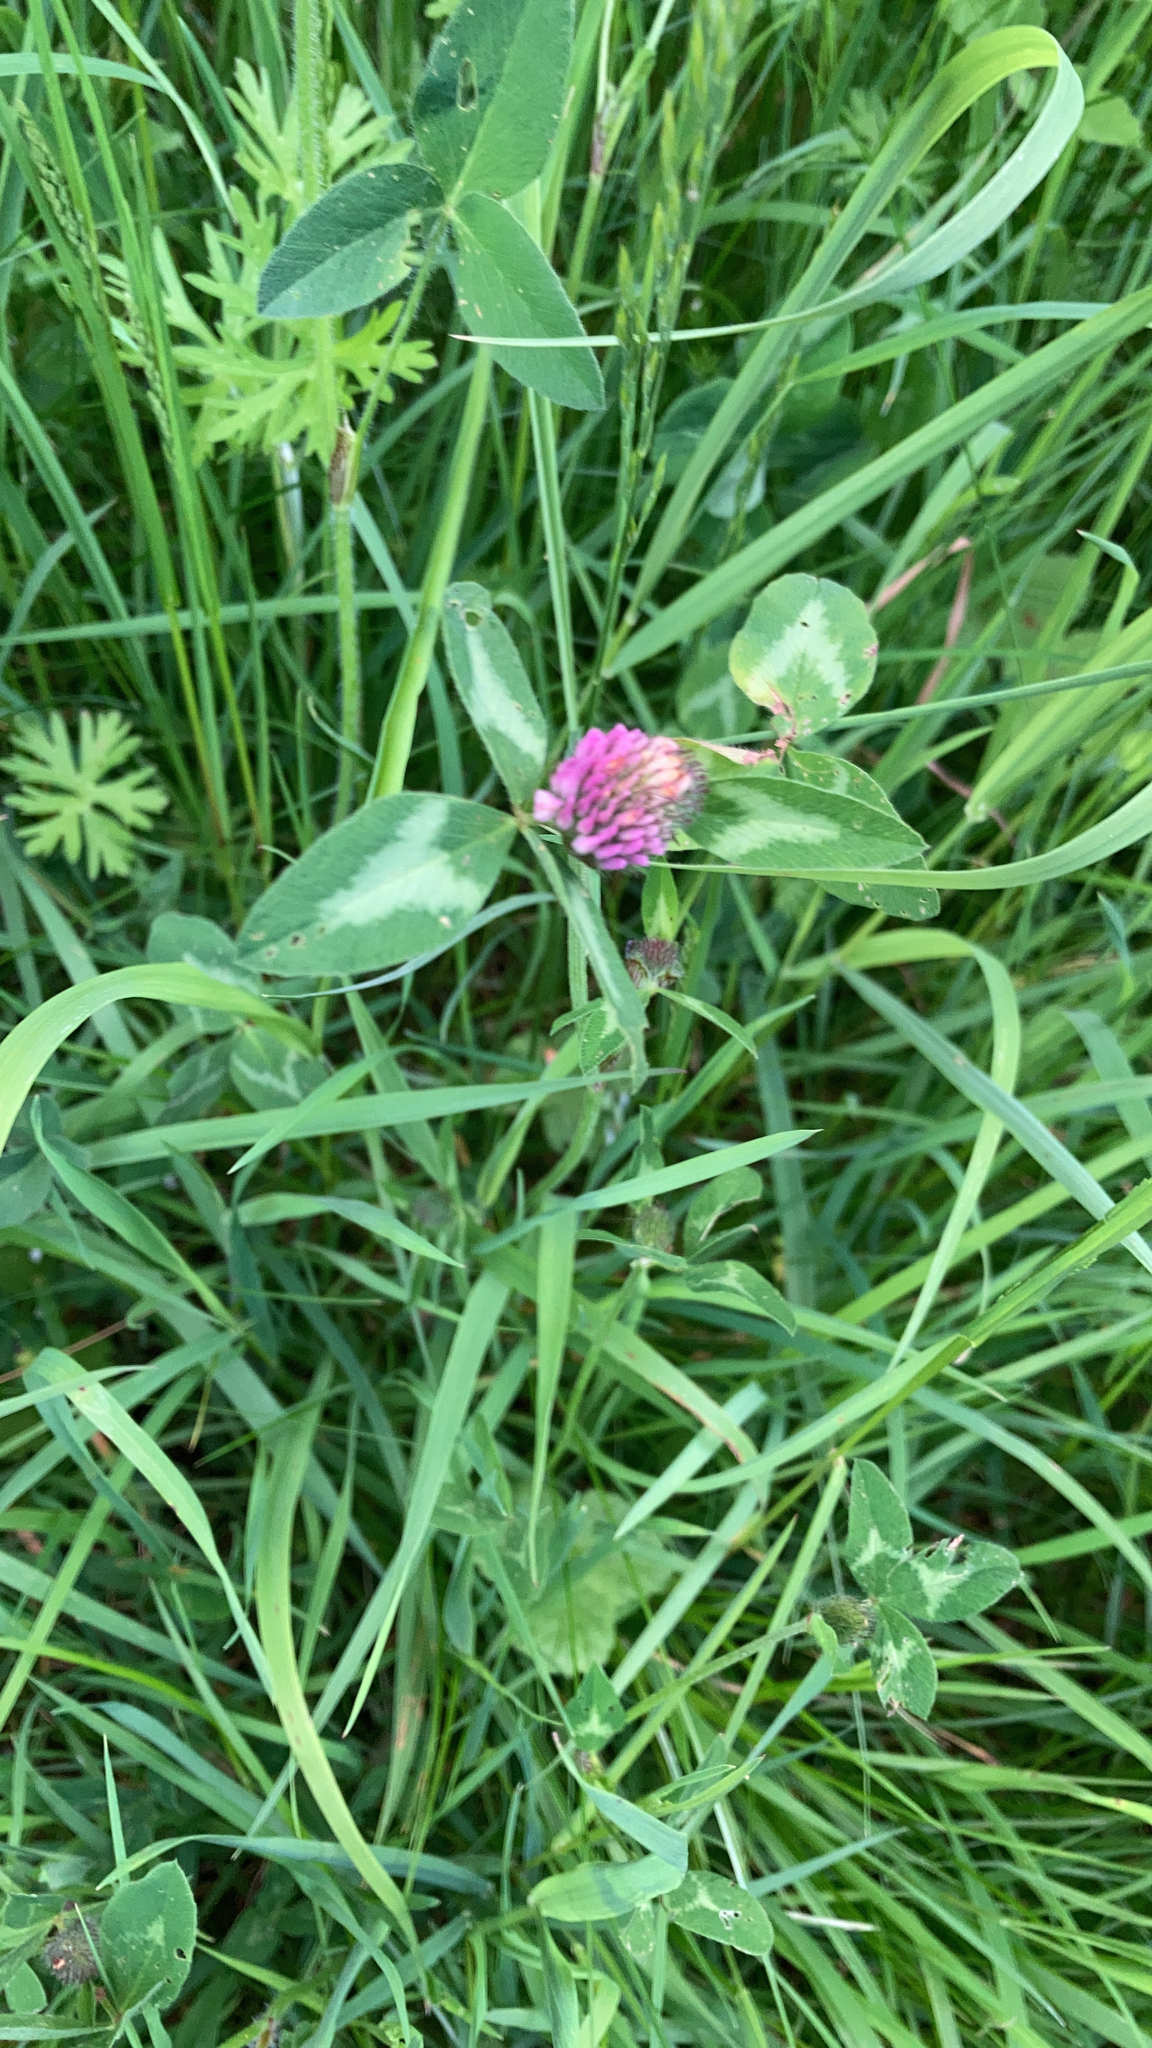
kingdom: Plantae
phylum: Tracheophyta
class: Magnoliopsida
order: Fabales
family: Fabaceae
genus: Trifolium
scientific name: Trifolium pratense
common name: Red clover
